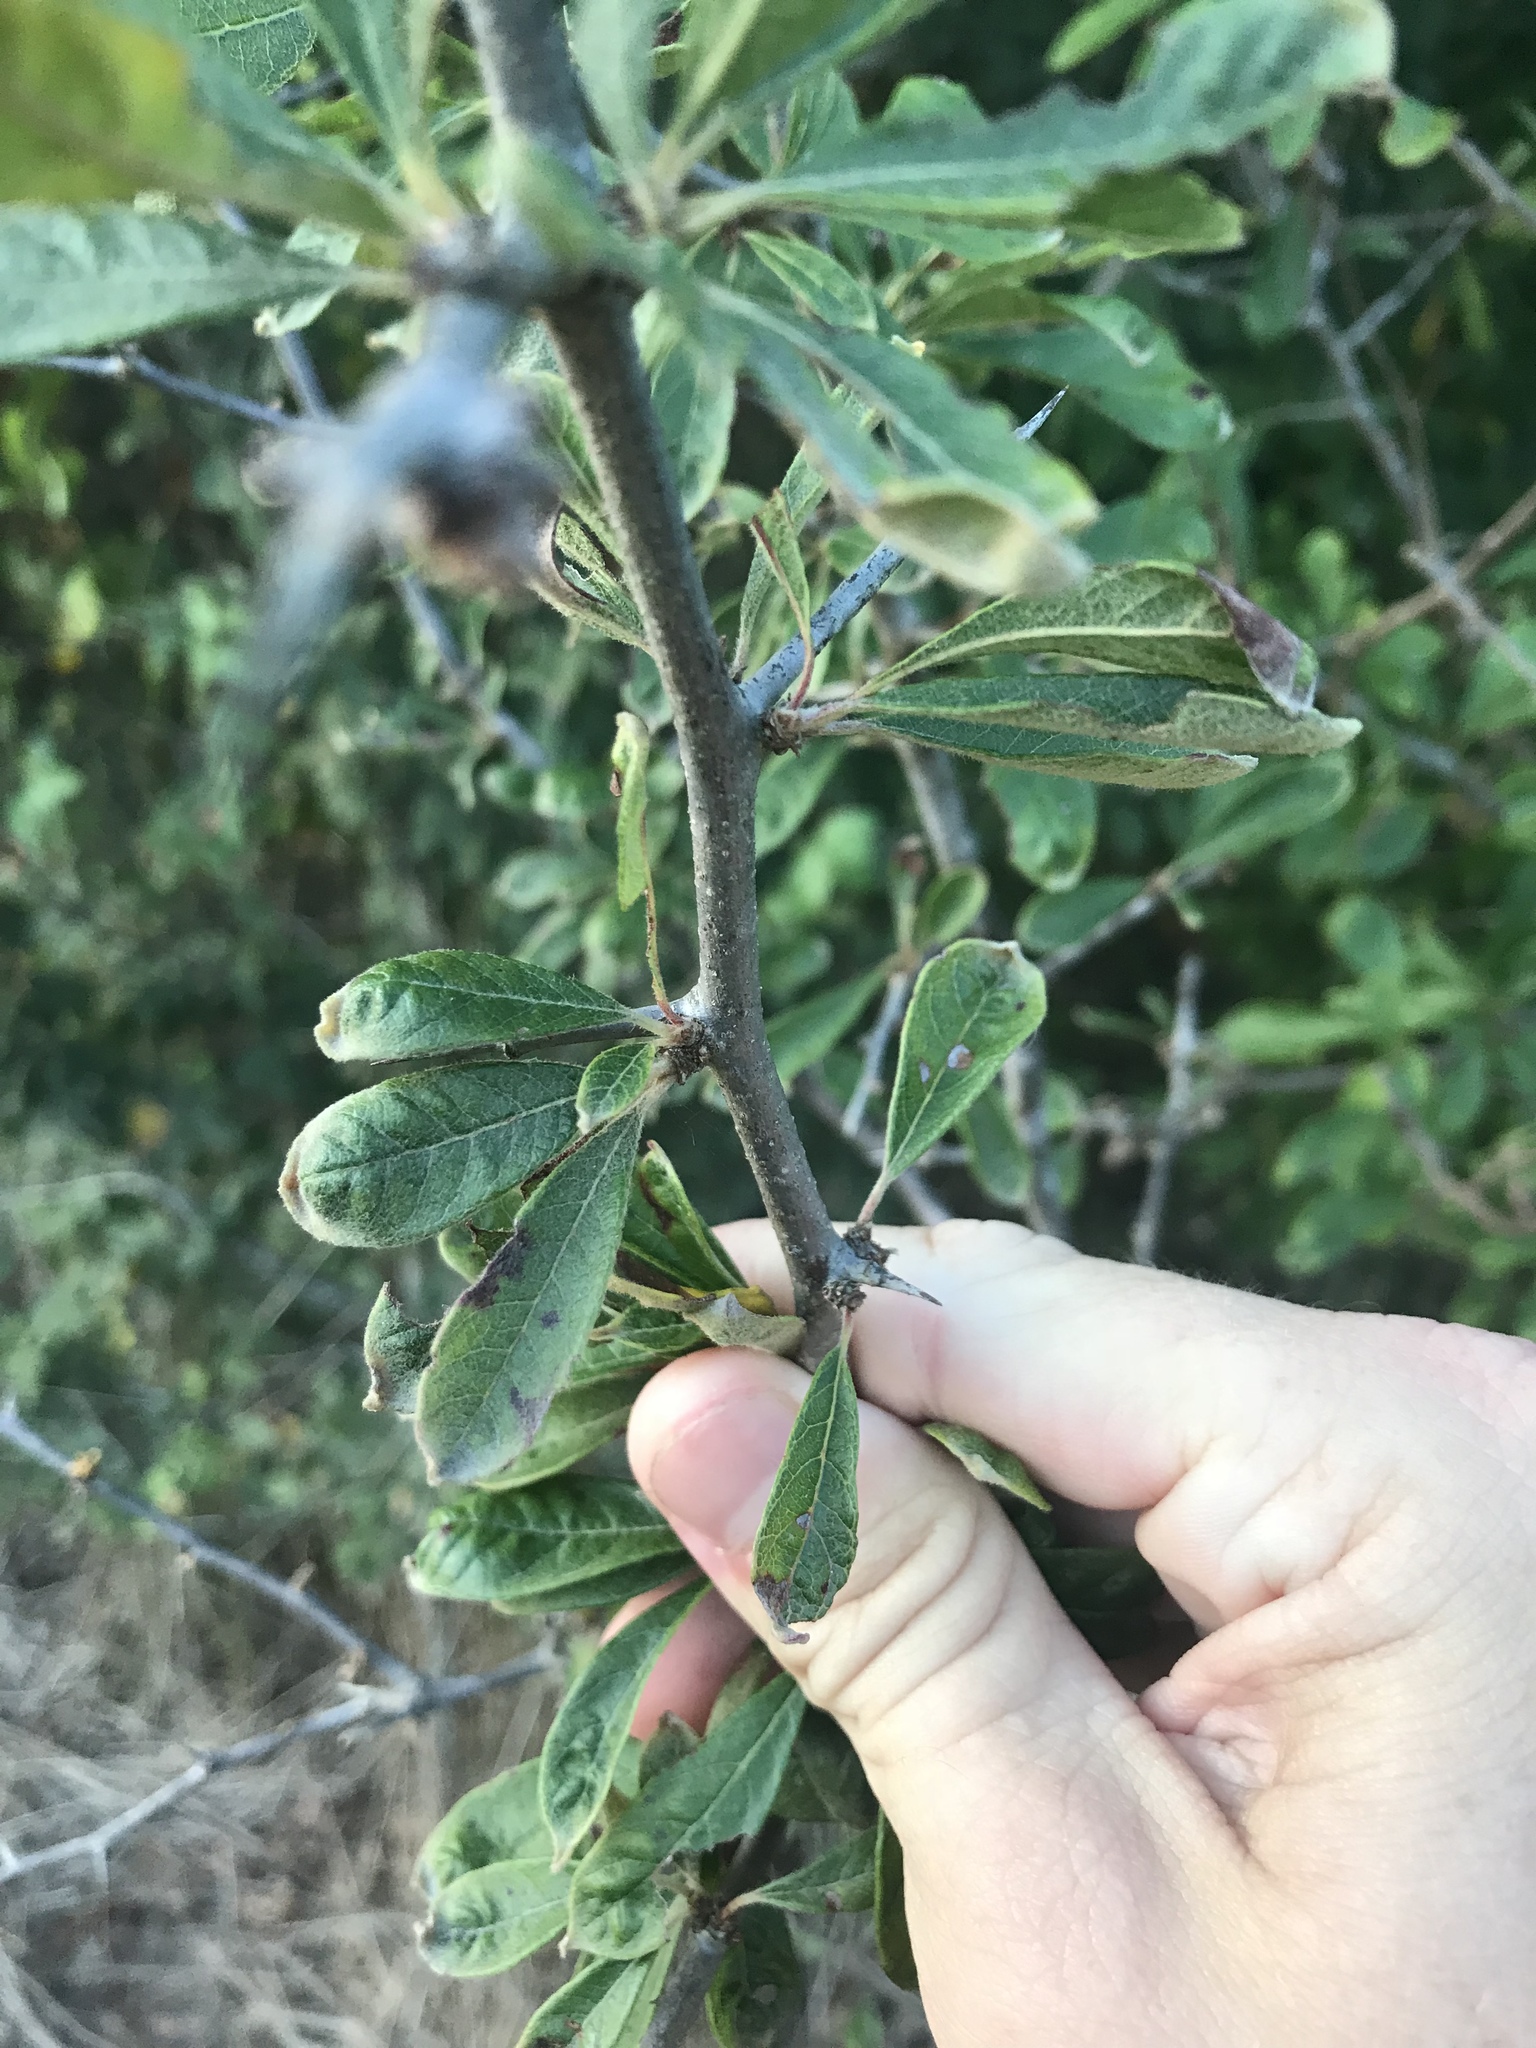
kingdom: Plantae
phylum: Tracheophyta
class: Magnoliopsida
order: Ericales
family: Sapotaceae
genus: Sideroxylon
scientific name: Sideroxylon lanuginosum
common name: Chittamwood
